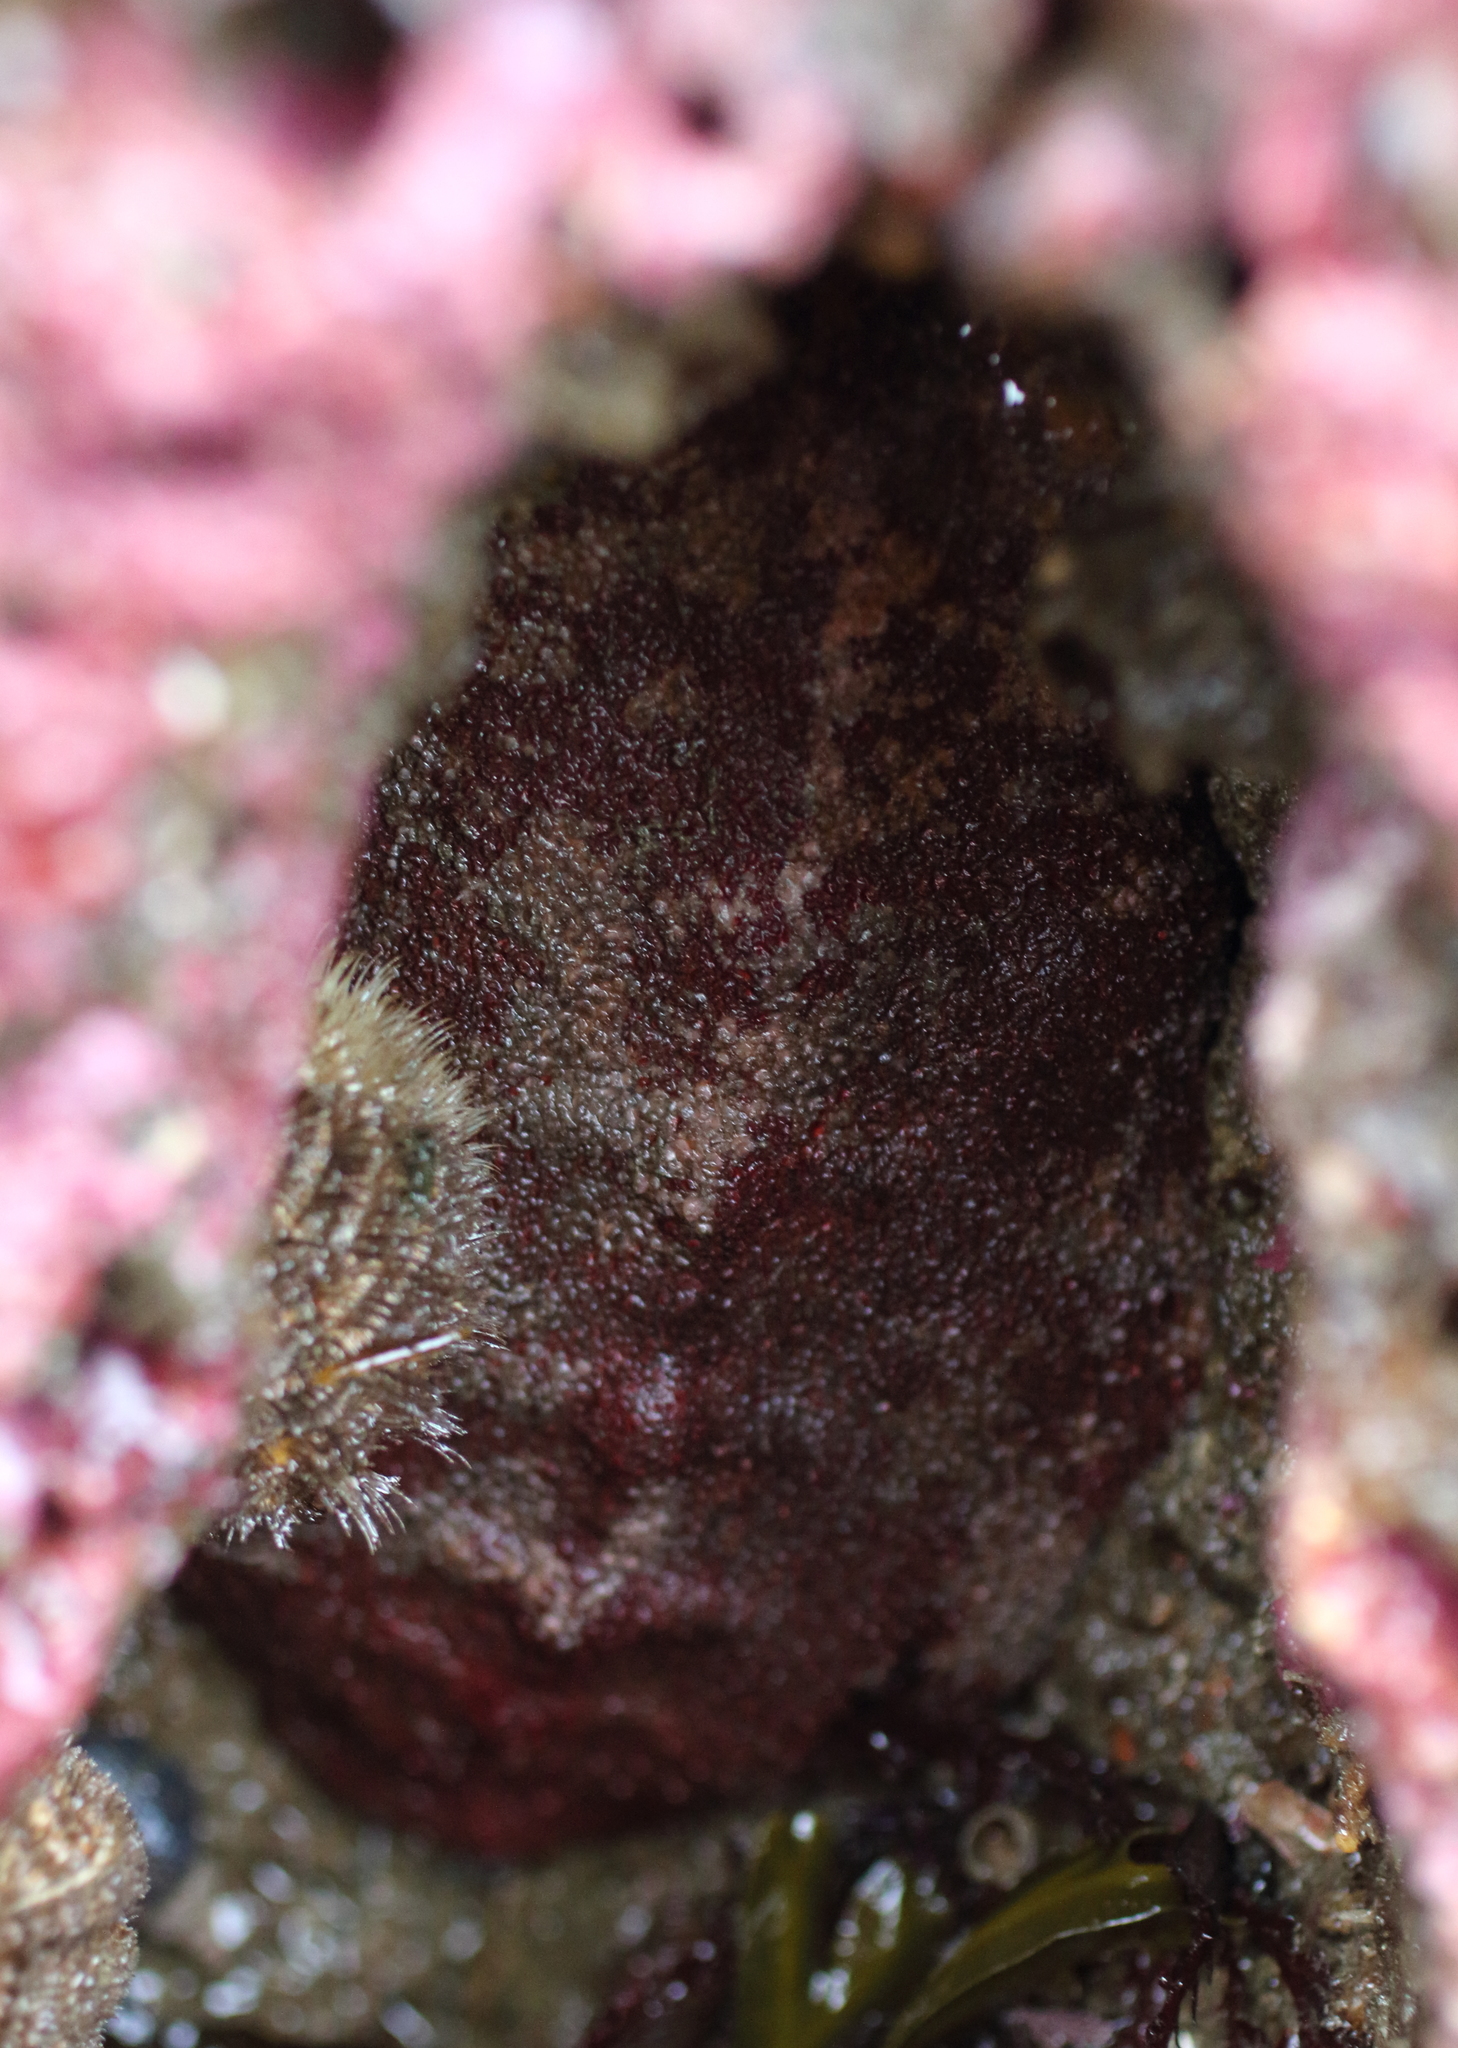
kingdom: Animalia
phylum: Mollusca
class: Polyplacophora
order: Chitonida
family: Acanthochitonidae
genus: Cryptochiton
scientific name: Cryptochiton stelleri
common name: Giant pacific chiton
